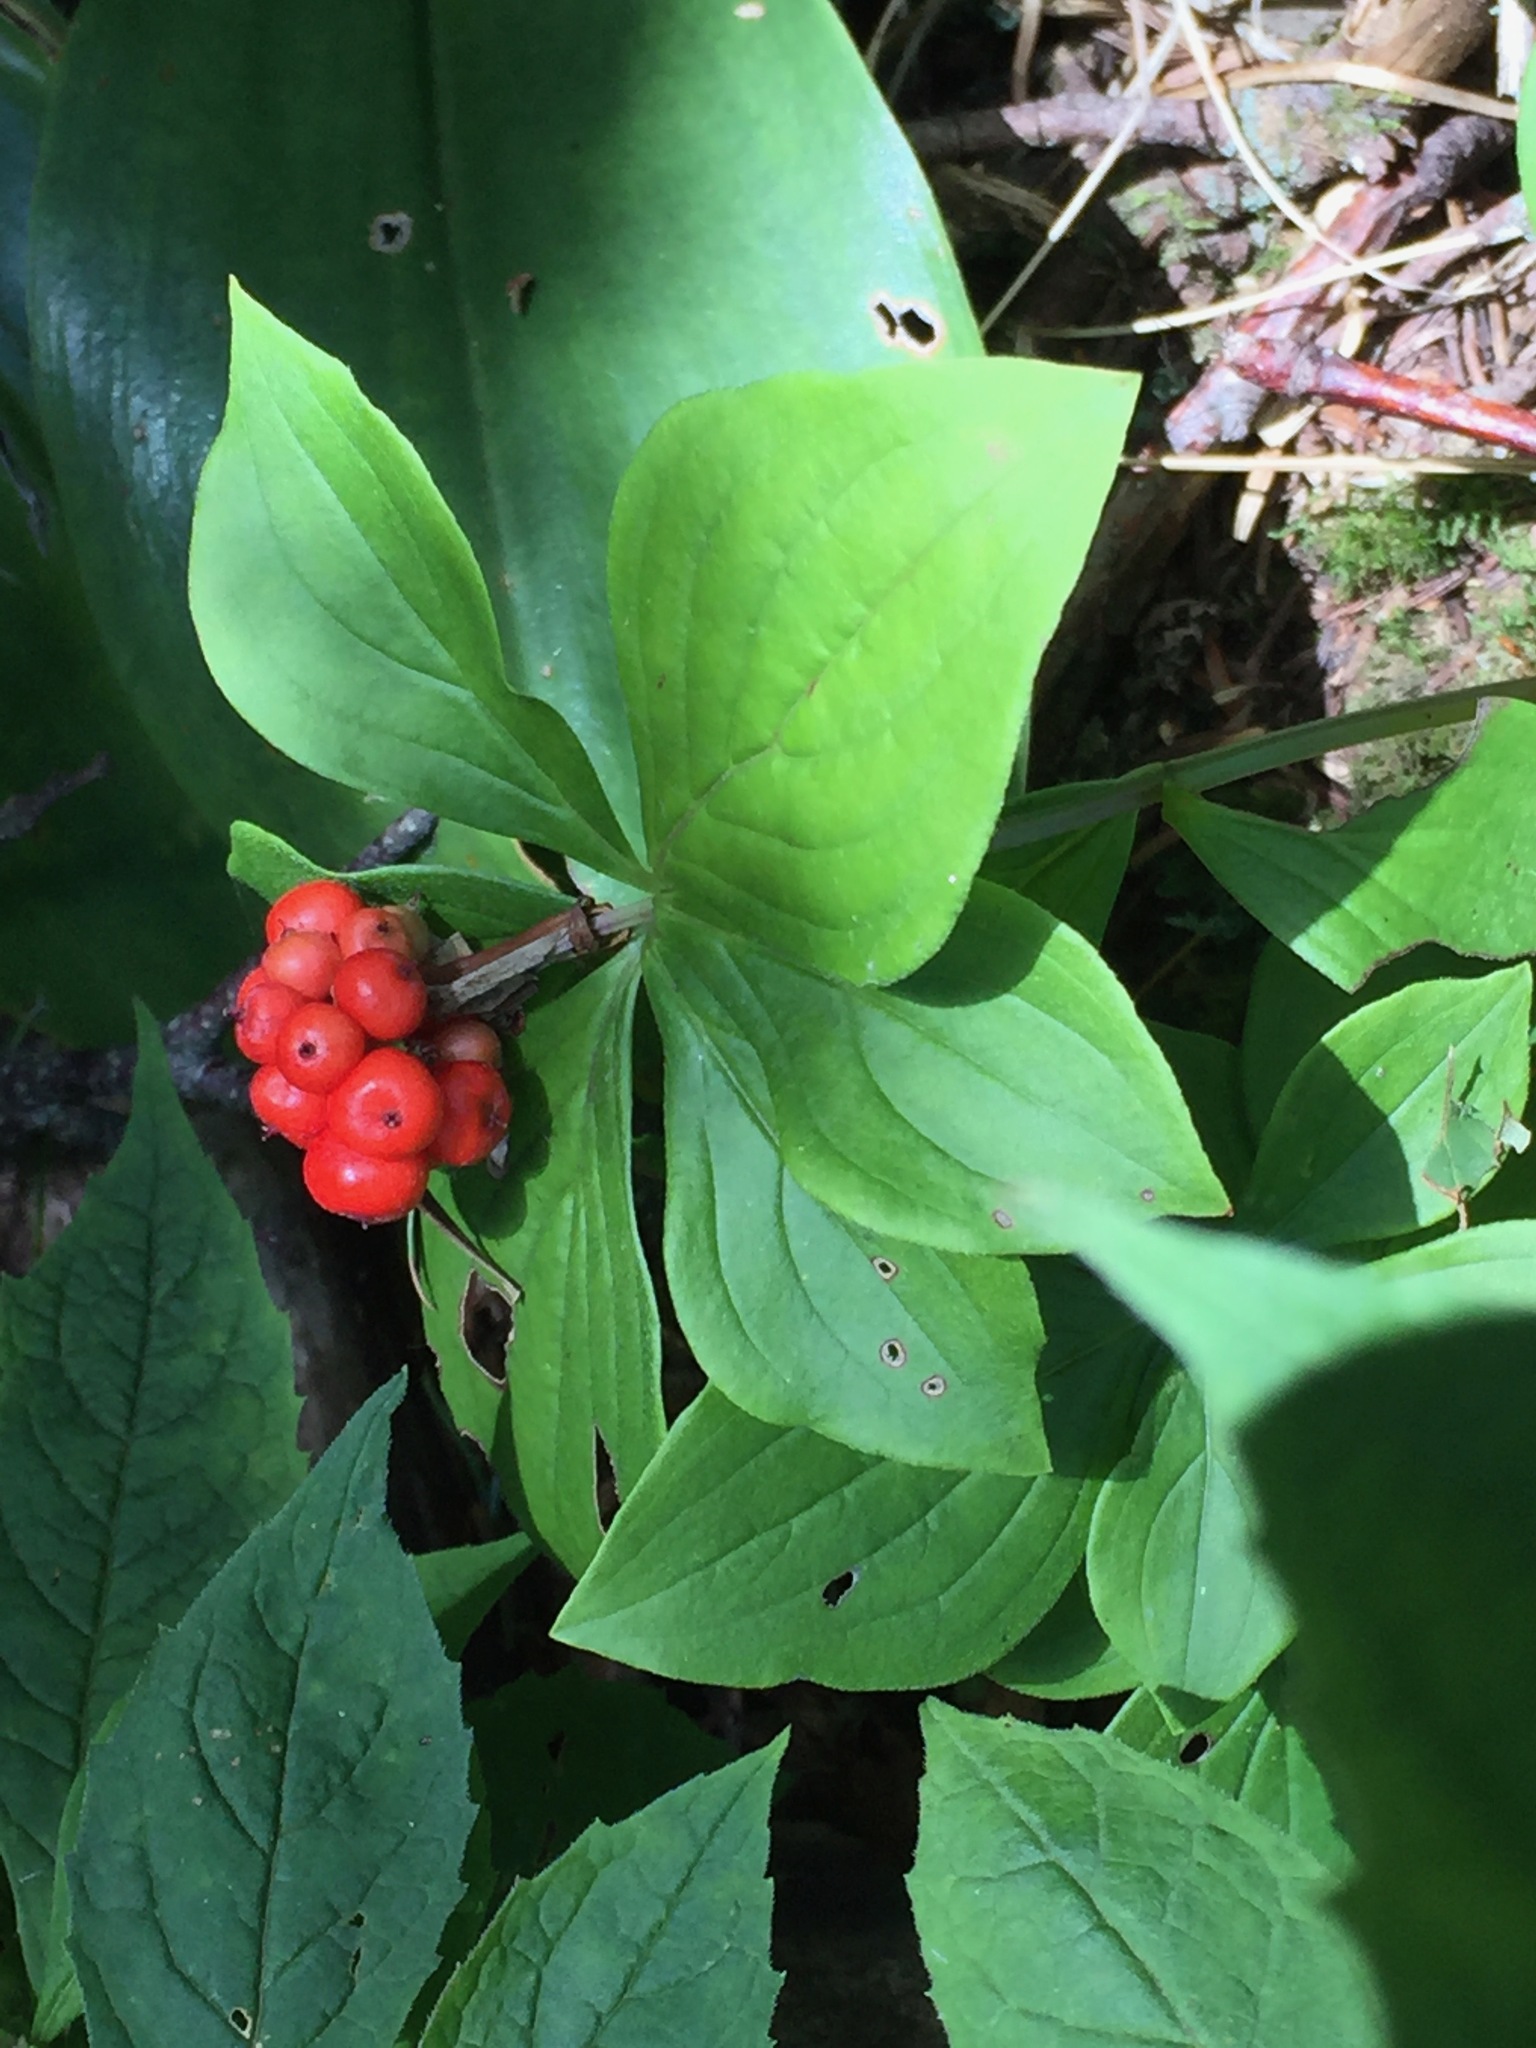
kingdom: Plantae
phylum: Tracheophyta
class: Magnoliopsida
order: Cornales
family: Cornaceae
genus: Cornus
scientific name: Cornus canadensis
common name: Creeping dogwood
